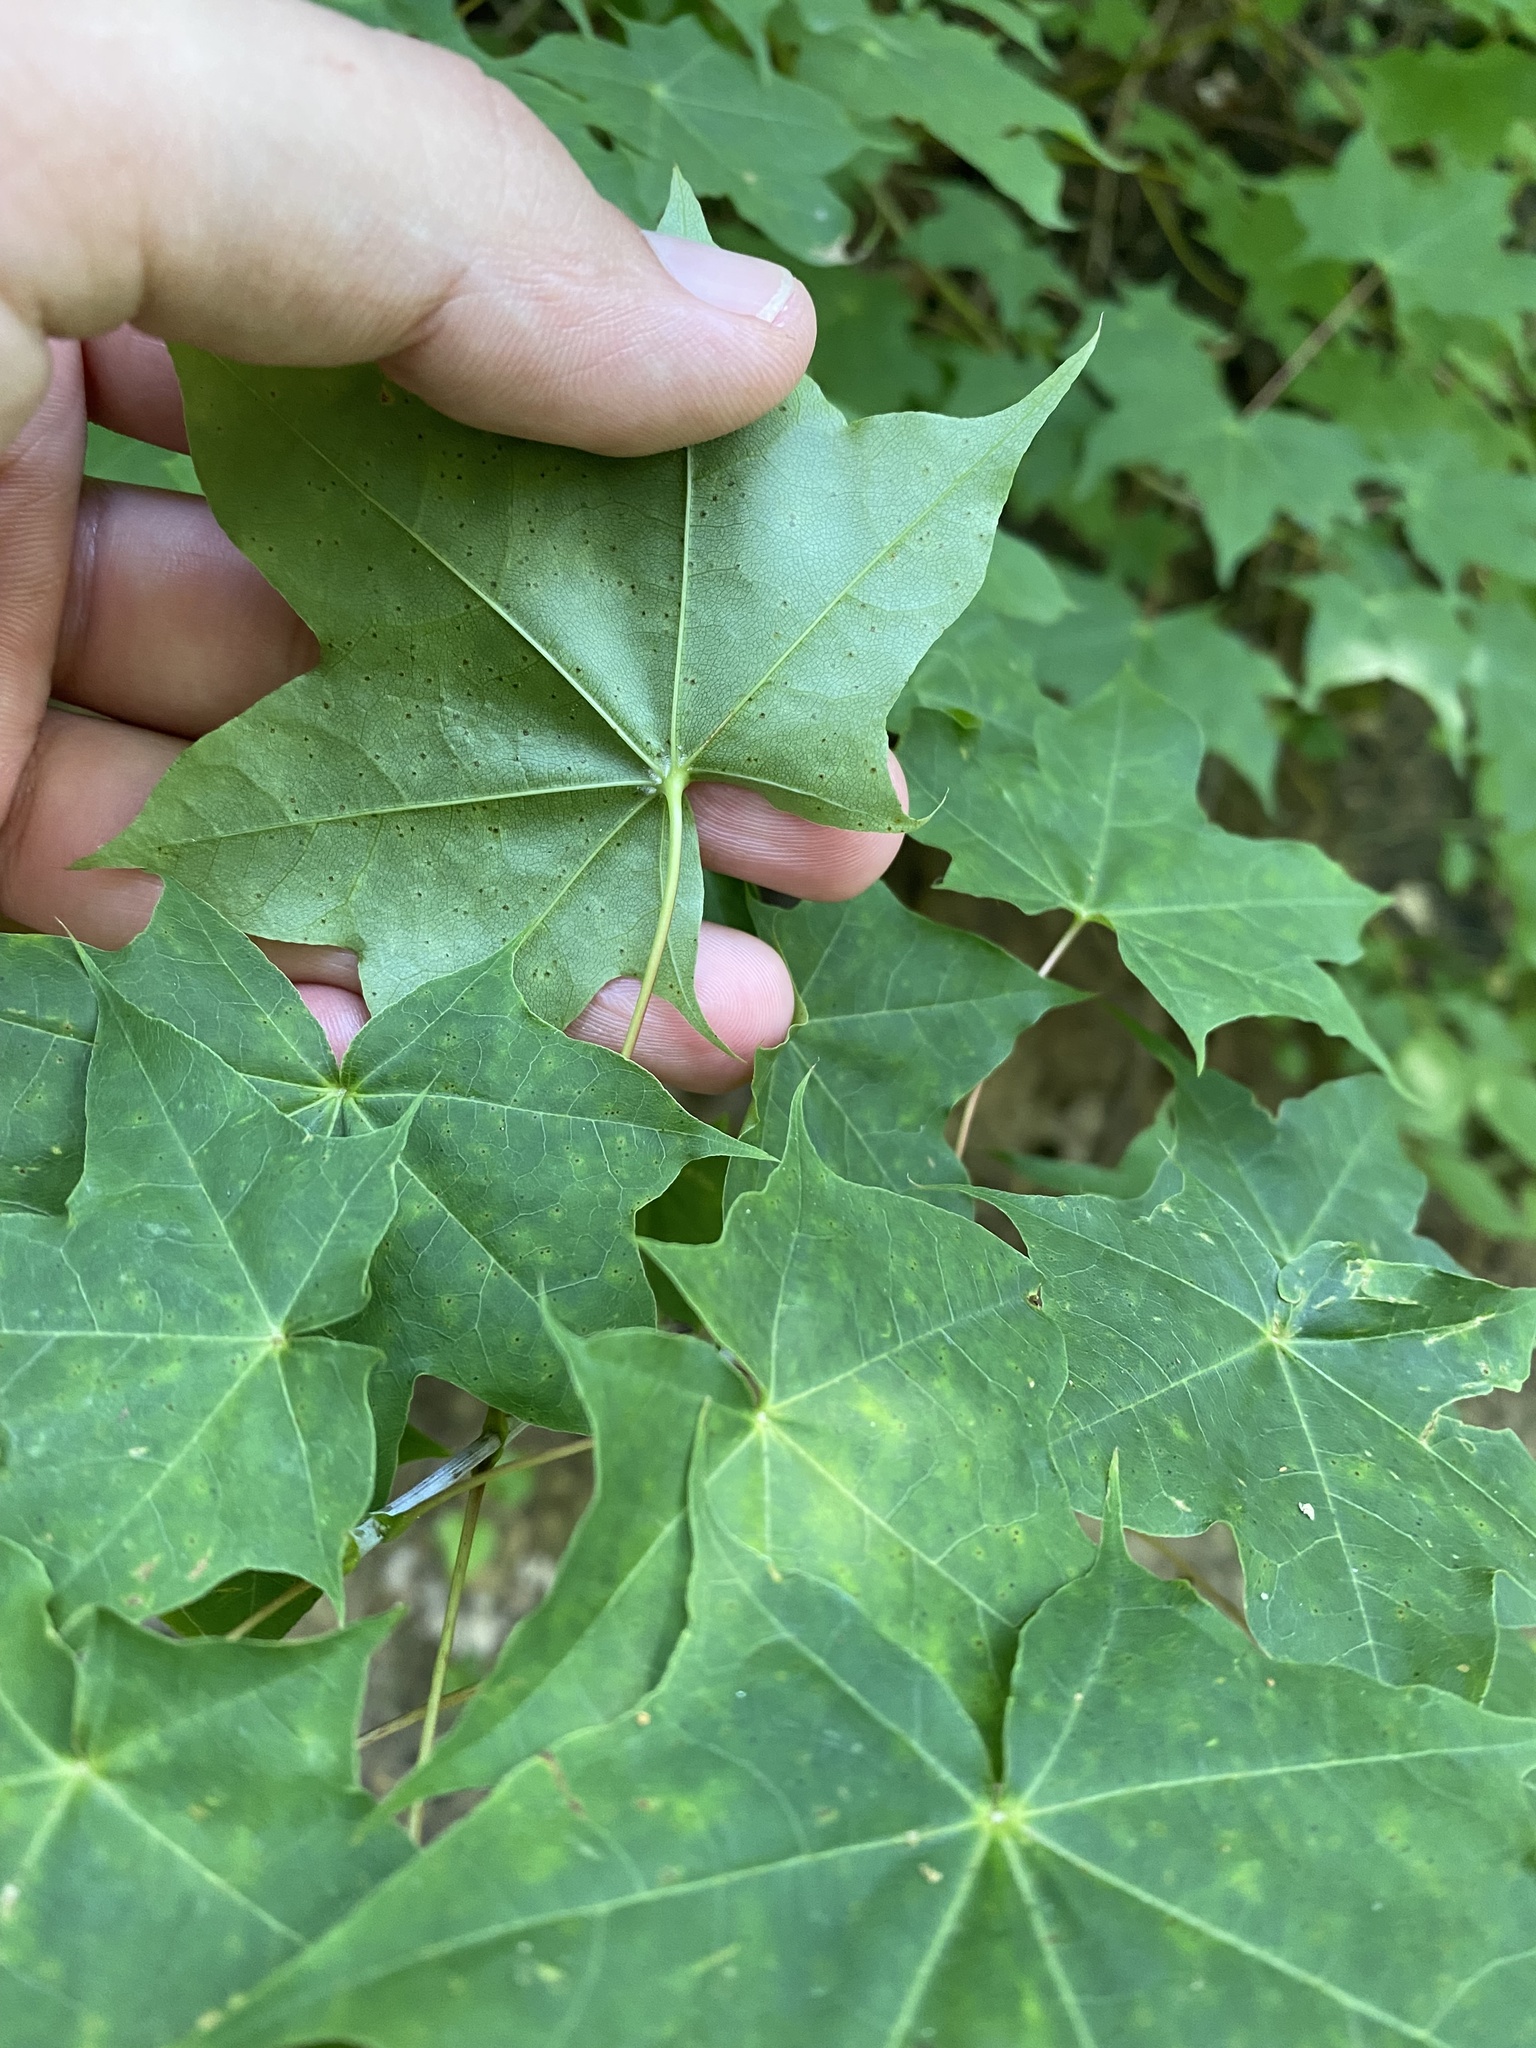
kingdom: Plantae
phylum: Tracheophyta
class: Magnoliopsida
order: Sapindales
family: Sapindaceae
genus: Acer
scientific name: Acer platanoides
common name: Norway maple
